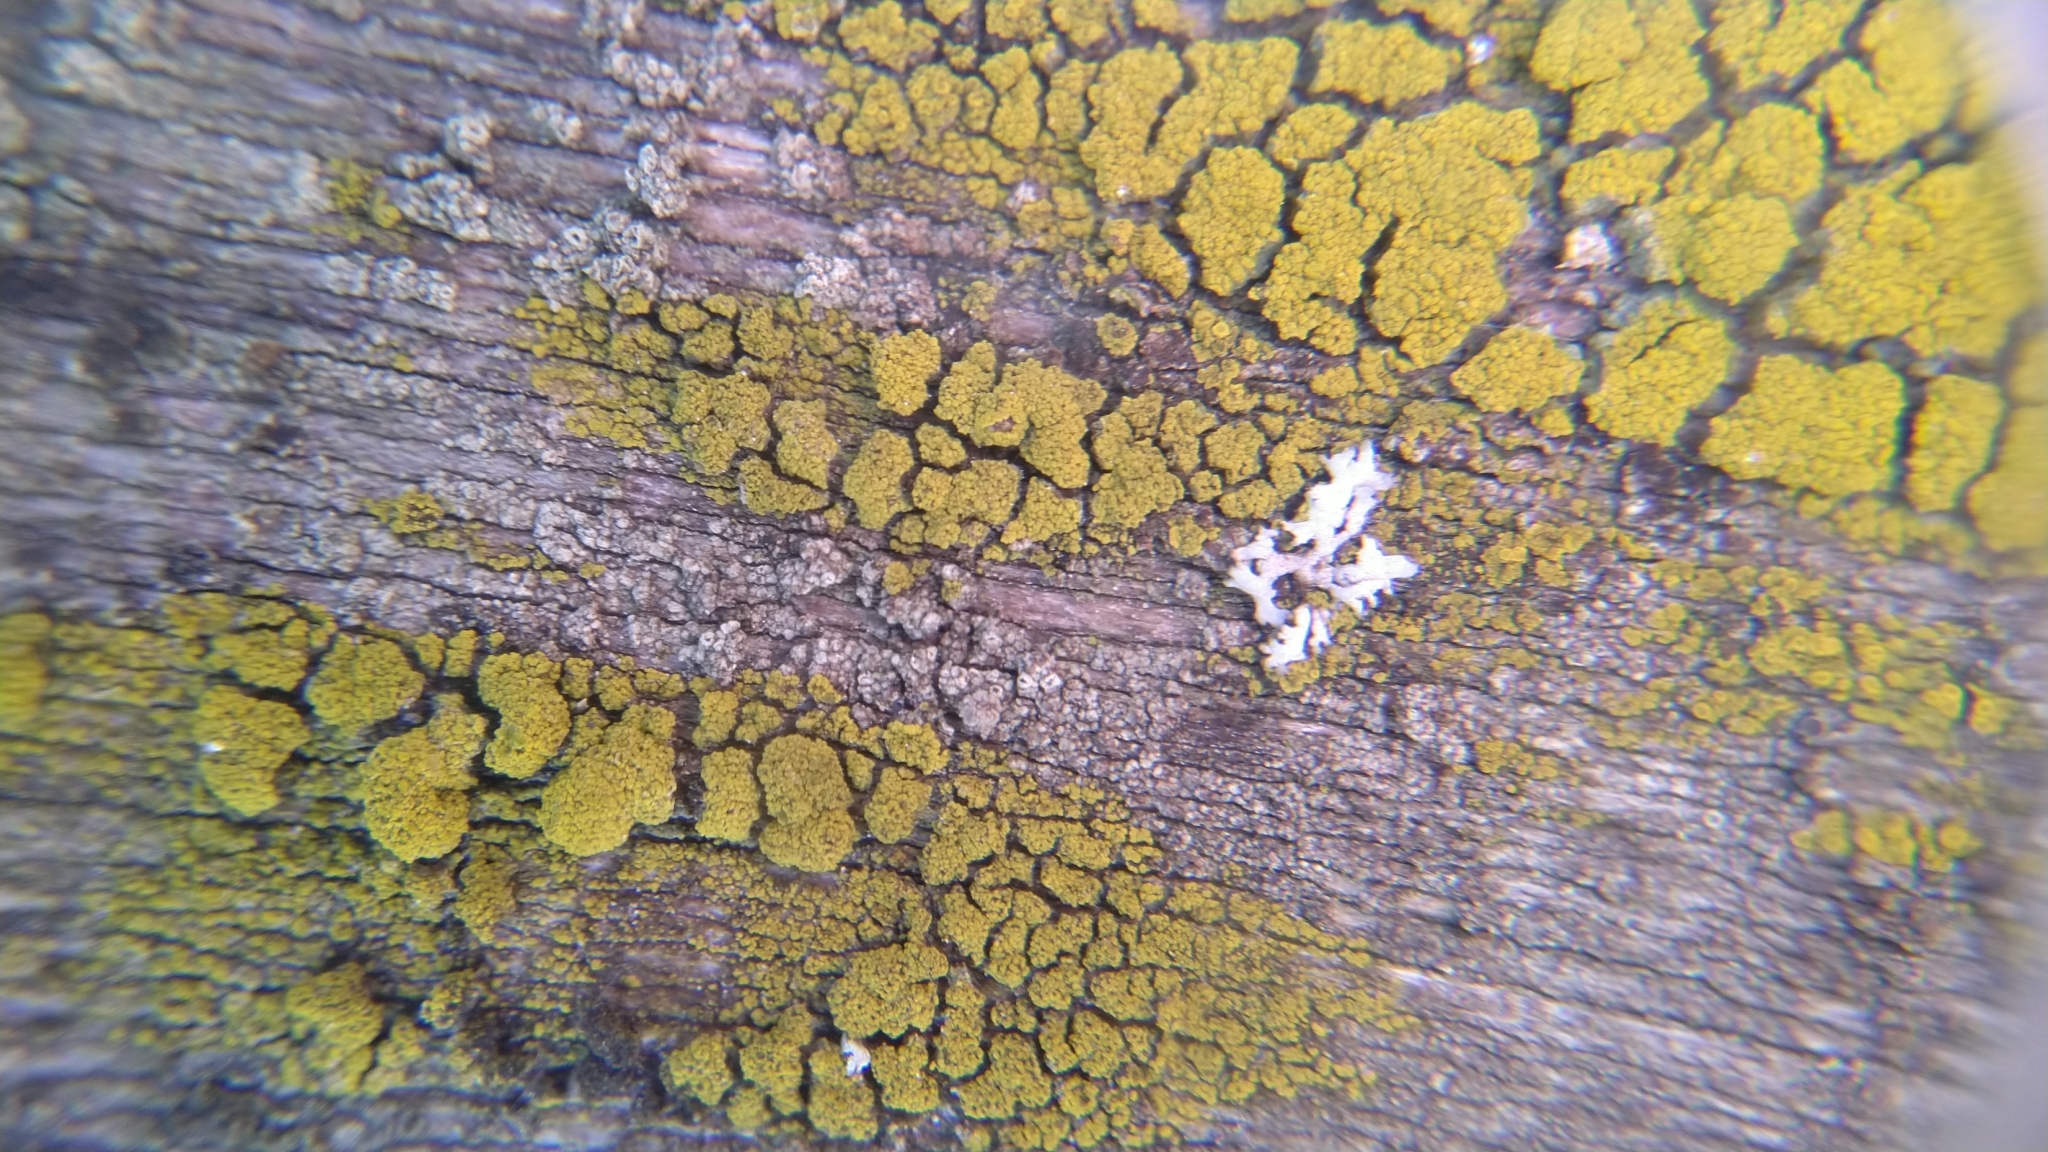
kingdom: Fungi
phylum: Ascomycota
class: Candelariomycetes
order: Candelariales
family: Candelariaceae
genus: Candelariella
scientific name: Candelariella vitellina
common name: Common goldspeck
